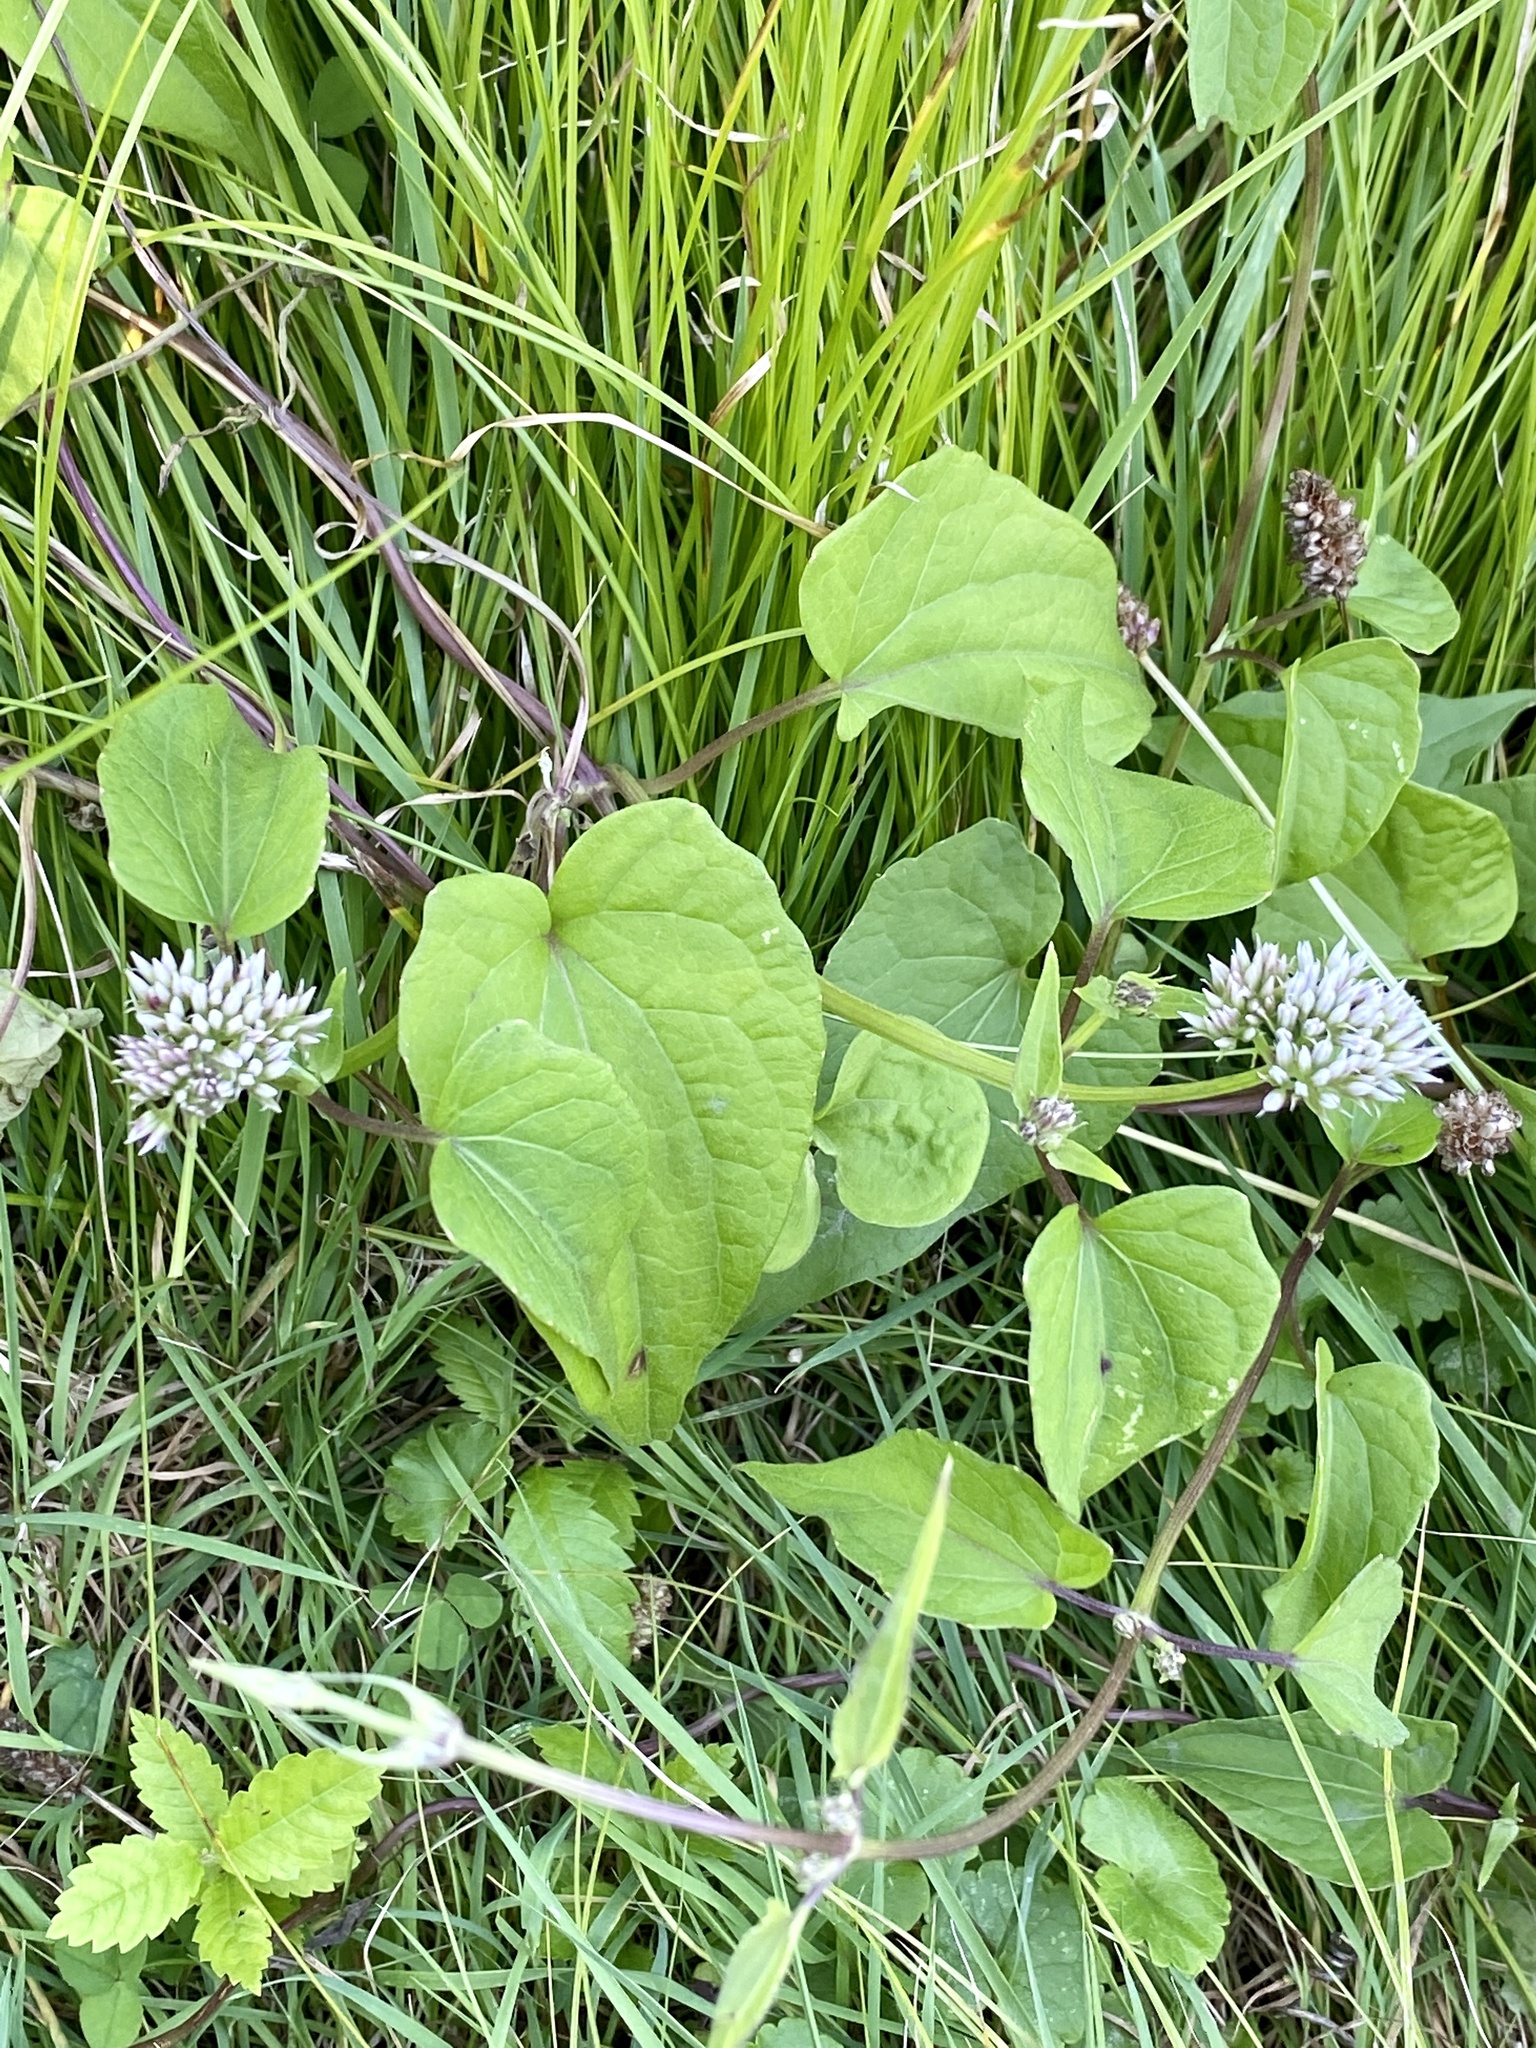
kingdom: Plantae
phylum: Tracheophyta
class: Magnoliopsida
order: Asterales
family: Asteraceae
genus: Mikania
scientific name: Mikania scandens
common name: Climbing hempvine
